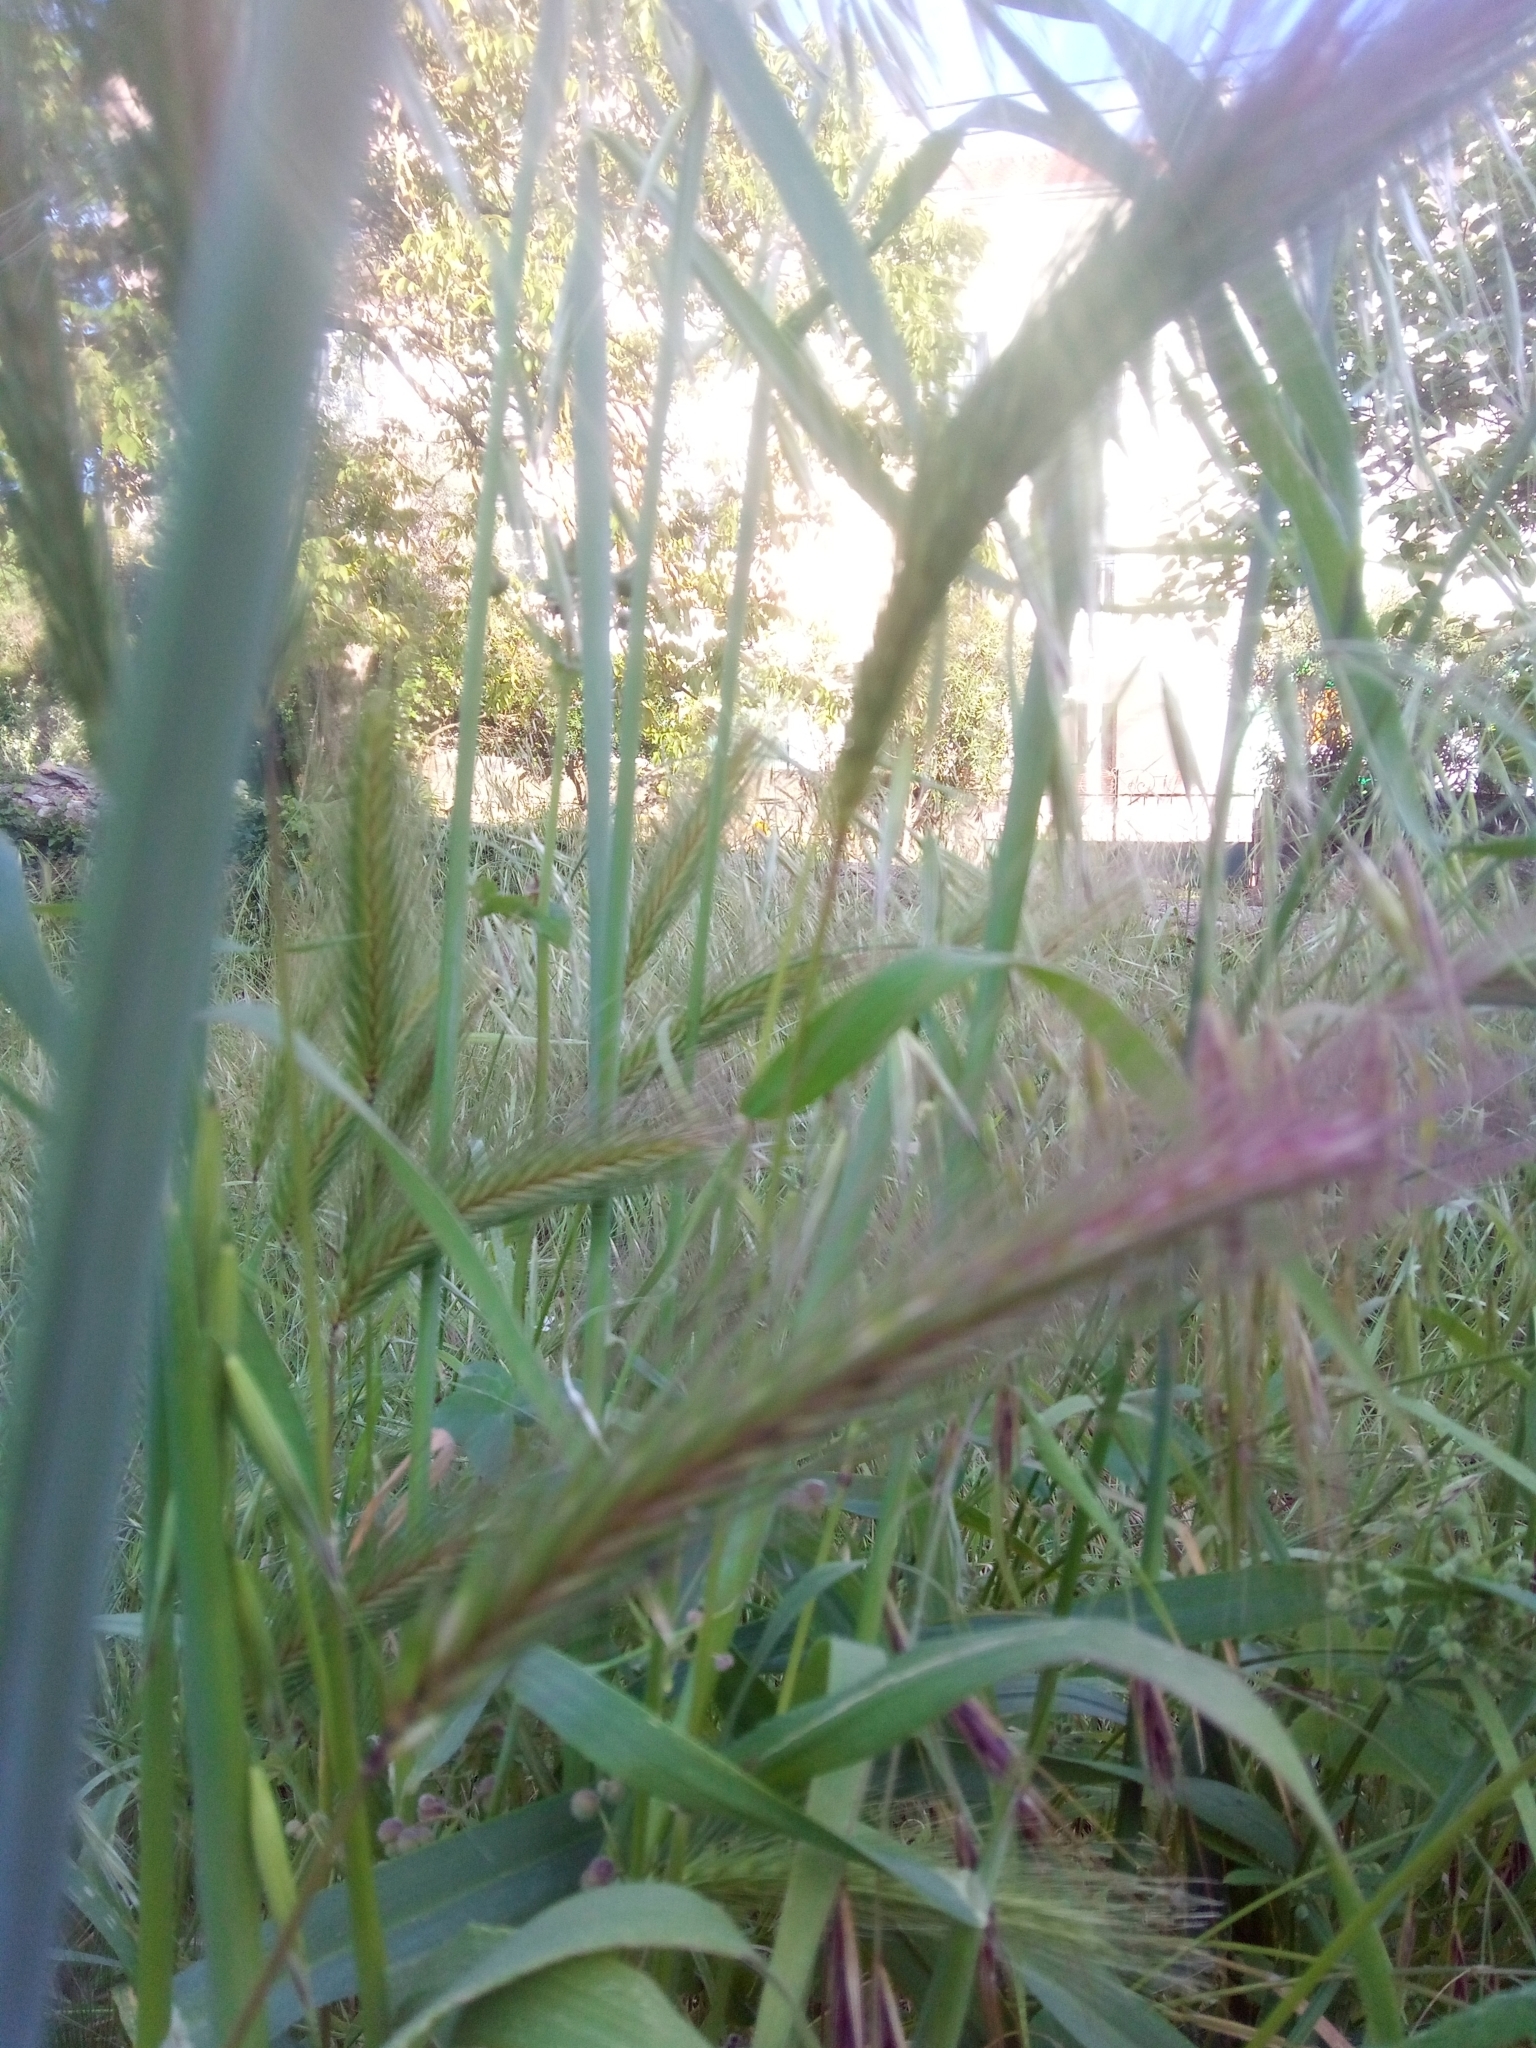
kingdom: Plantae
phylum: Tracheophyta
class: Liliopsida
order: Poales
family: Poaceae
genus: Hordeum
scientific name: Hordeum murinum
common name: Wall barley
